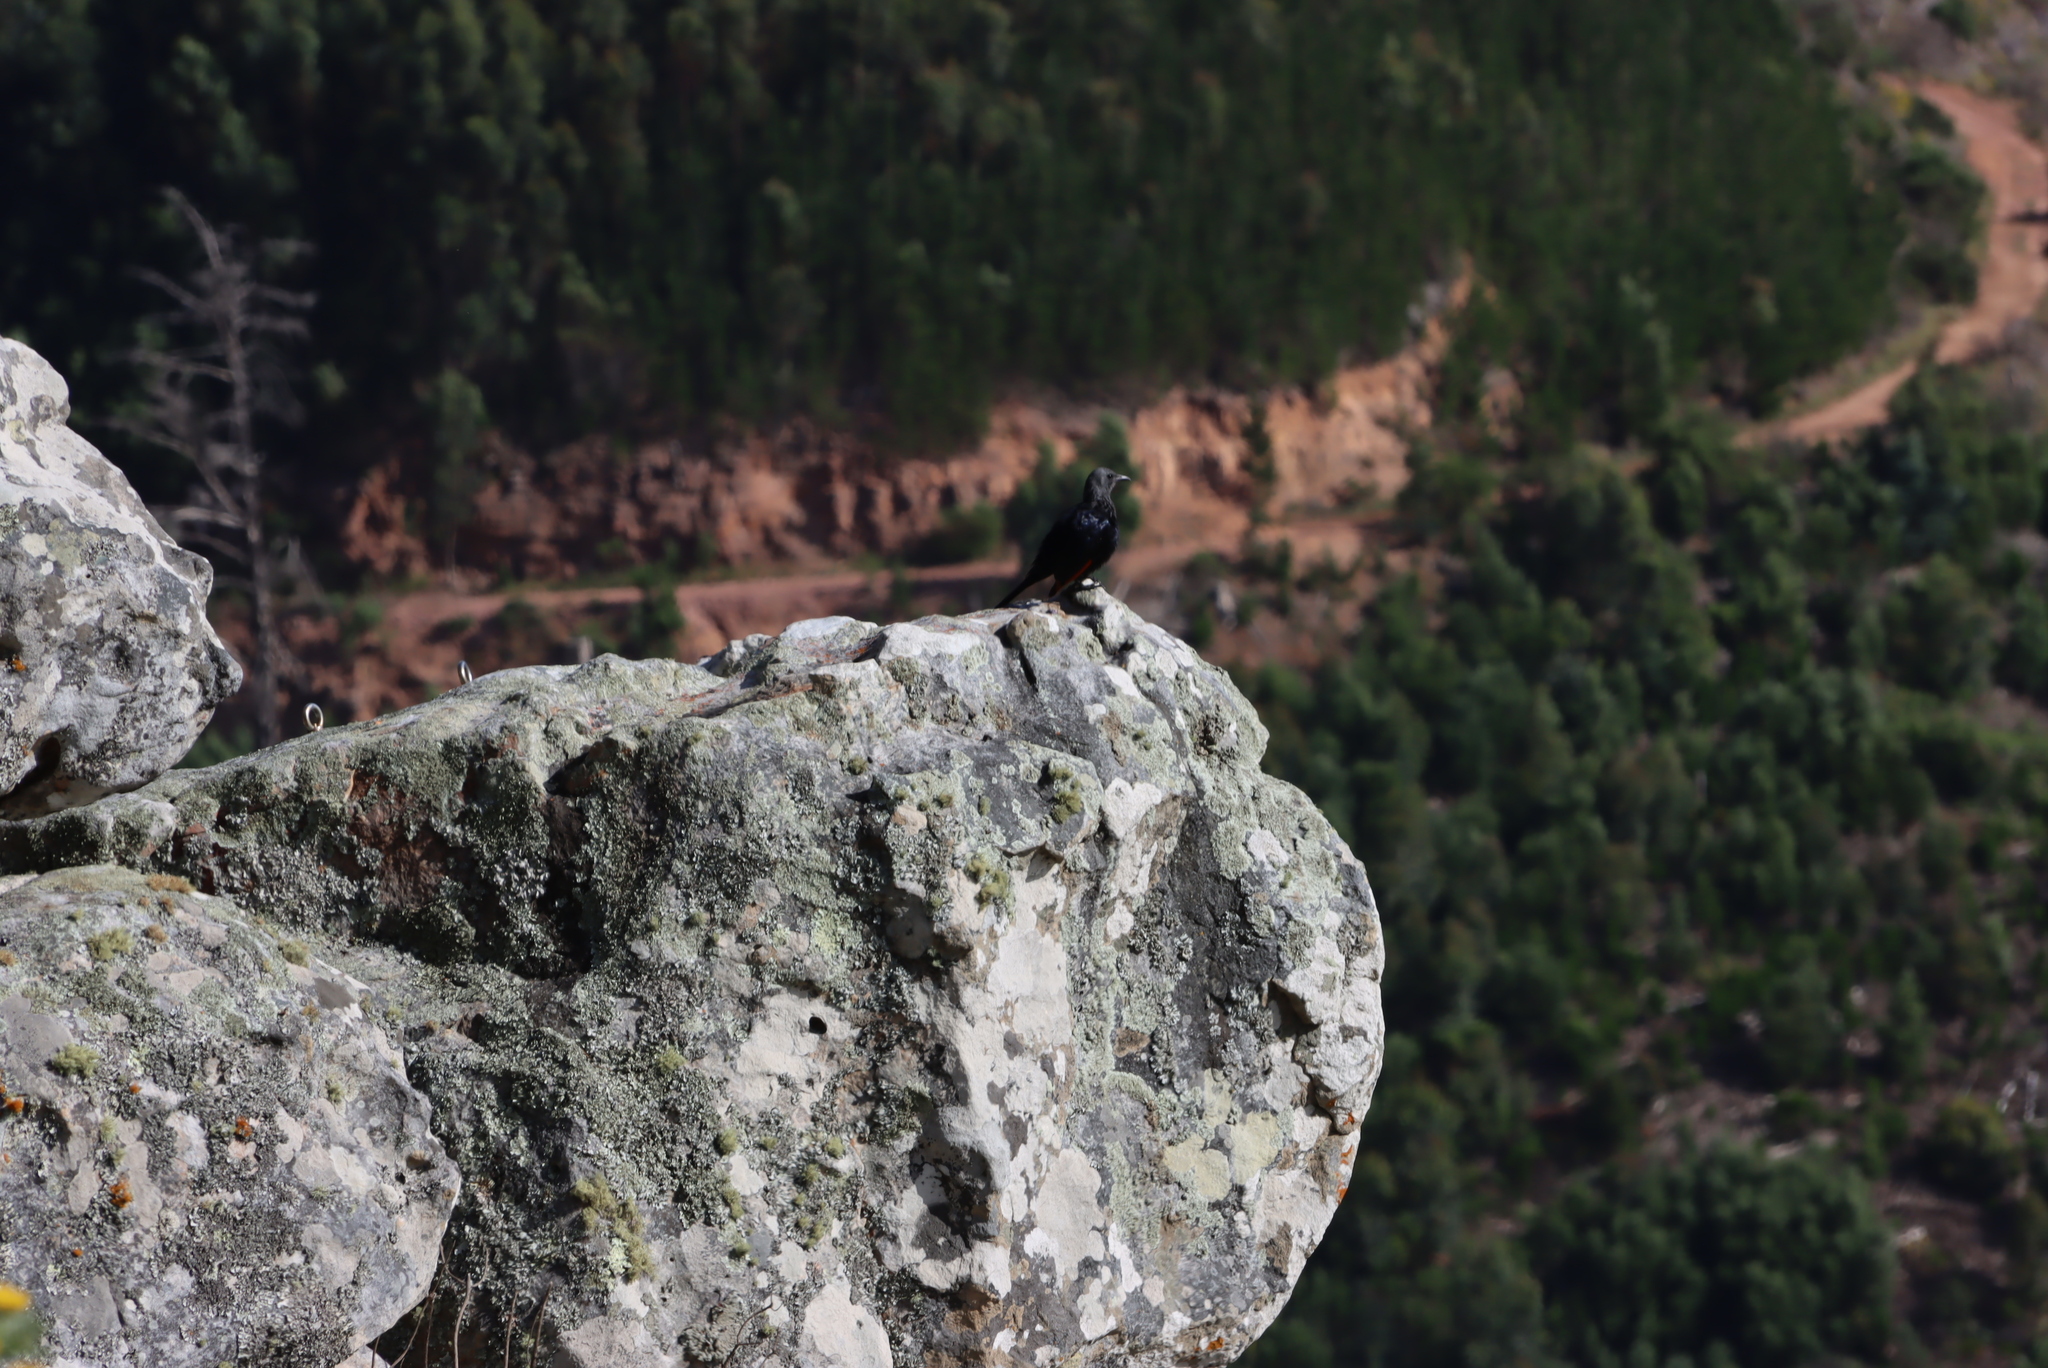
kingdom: Animalia
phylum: Chordata
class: Aves
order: Passeriformes
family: Sturnidae
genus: Onychognathus
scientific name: Onychognathus morio
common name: Red-winged starling
